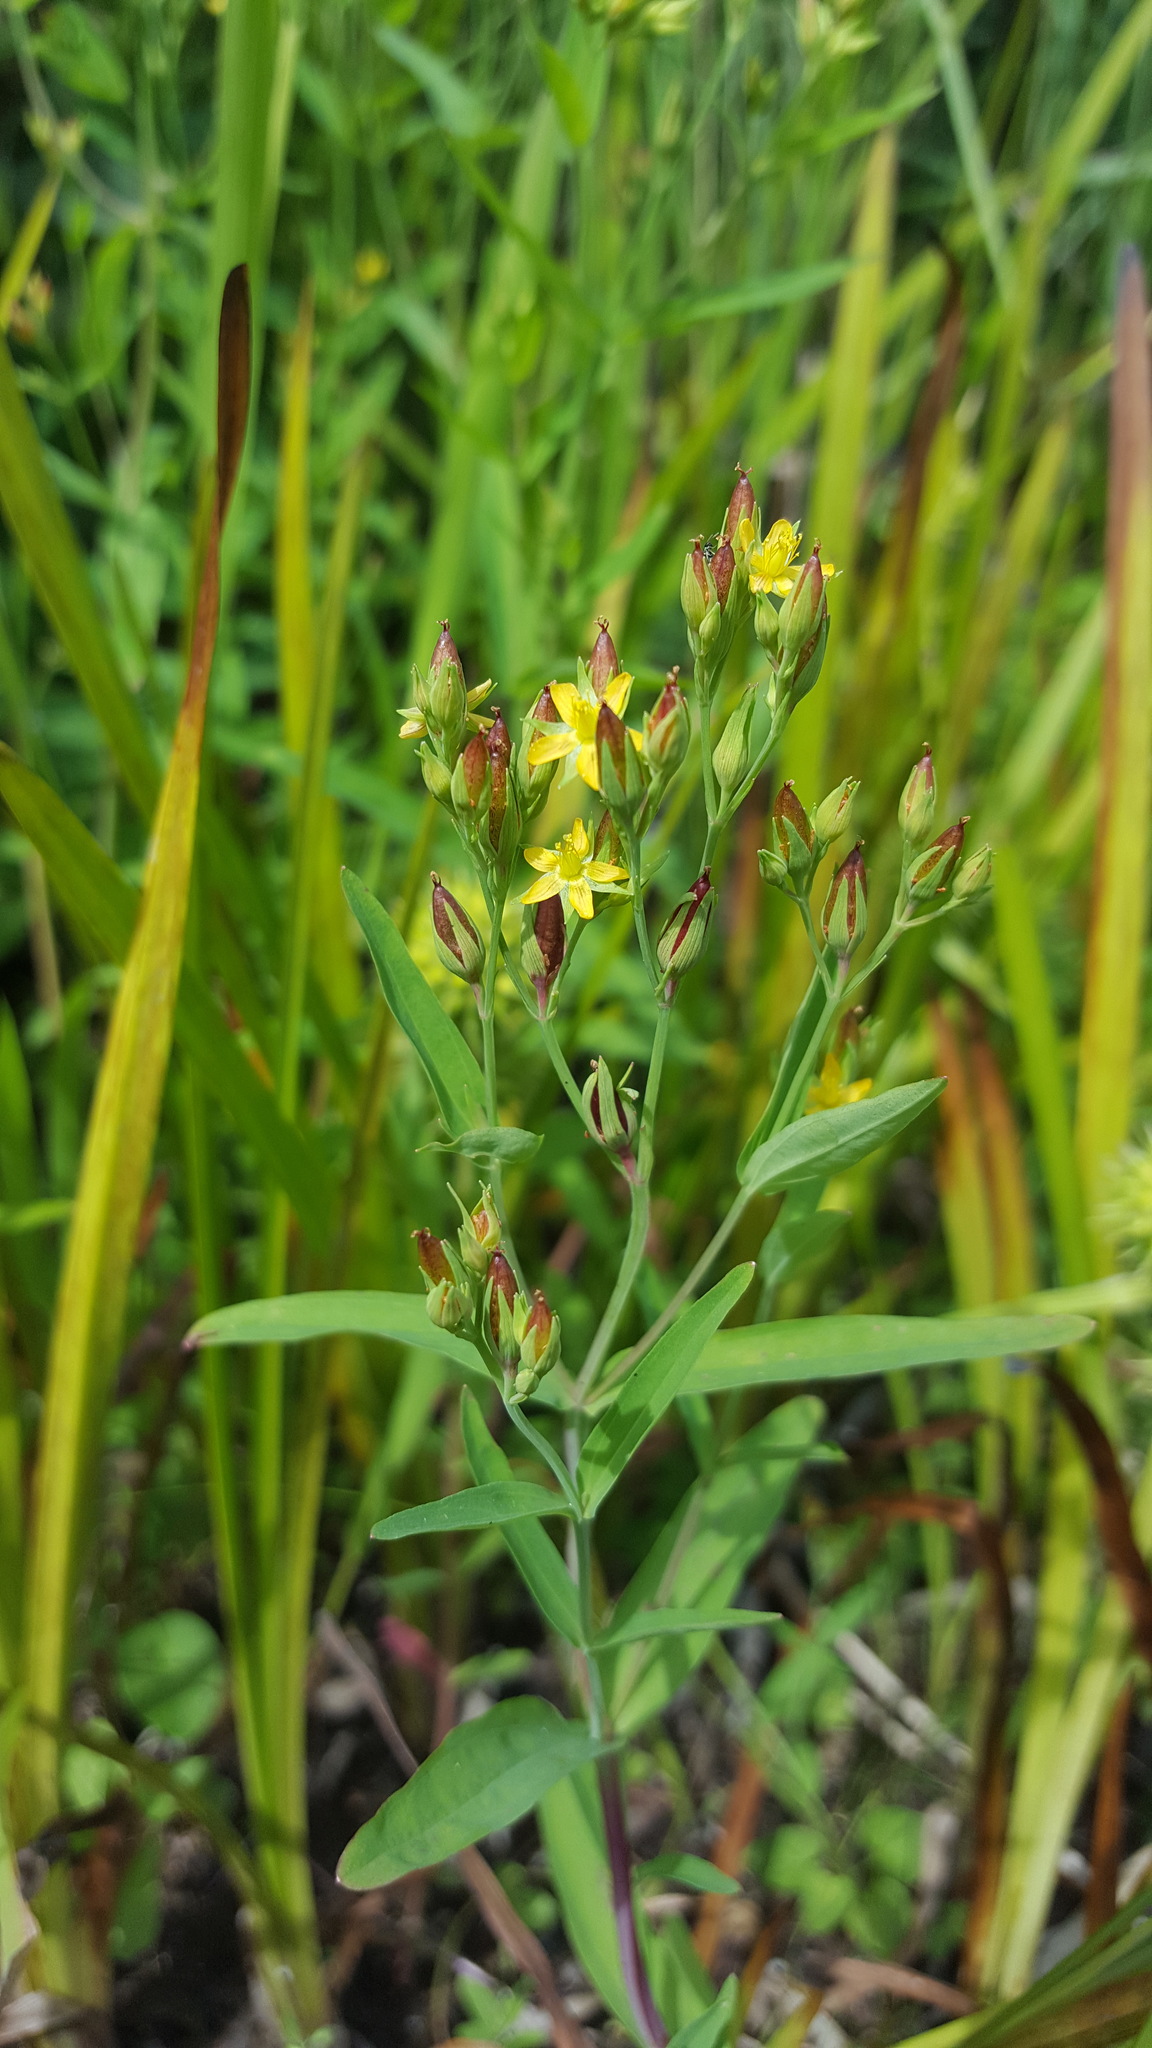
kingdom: Plantae
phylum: Tracheophyta
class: Magnoliopsida
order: Malpighiales
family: Hypericaceae
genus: Hypericum
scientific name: Hypericum majus
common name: Greater canadian st. john's-wort
